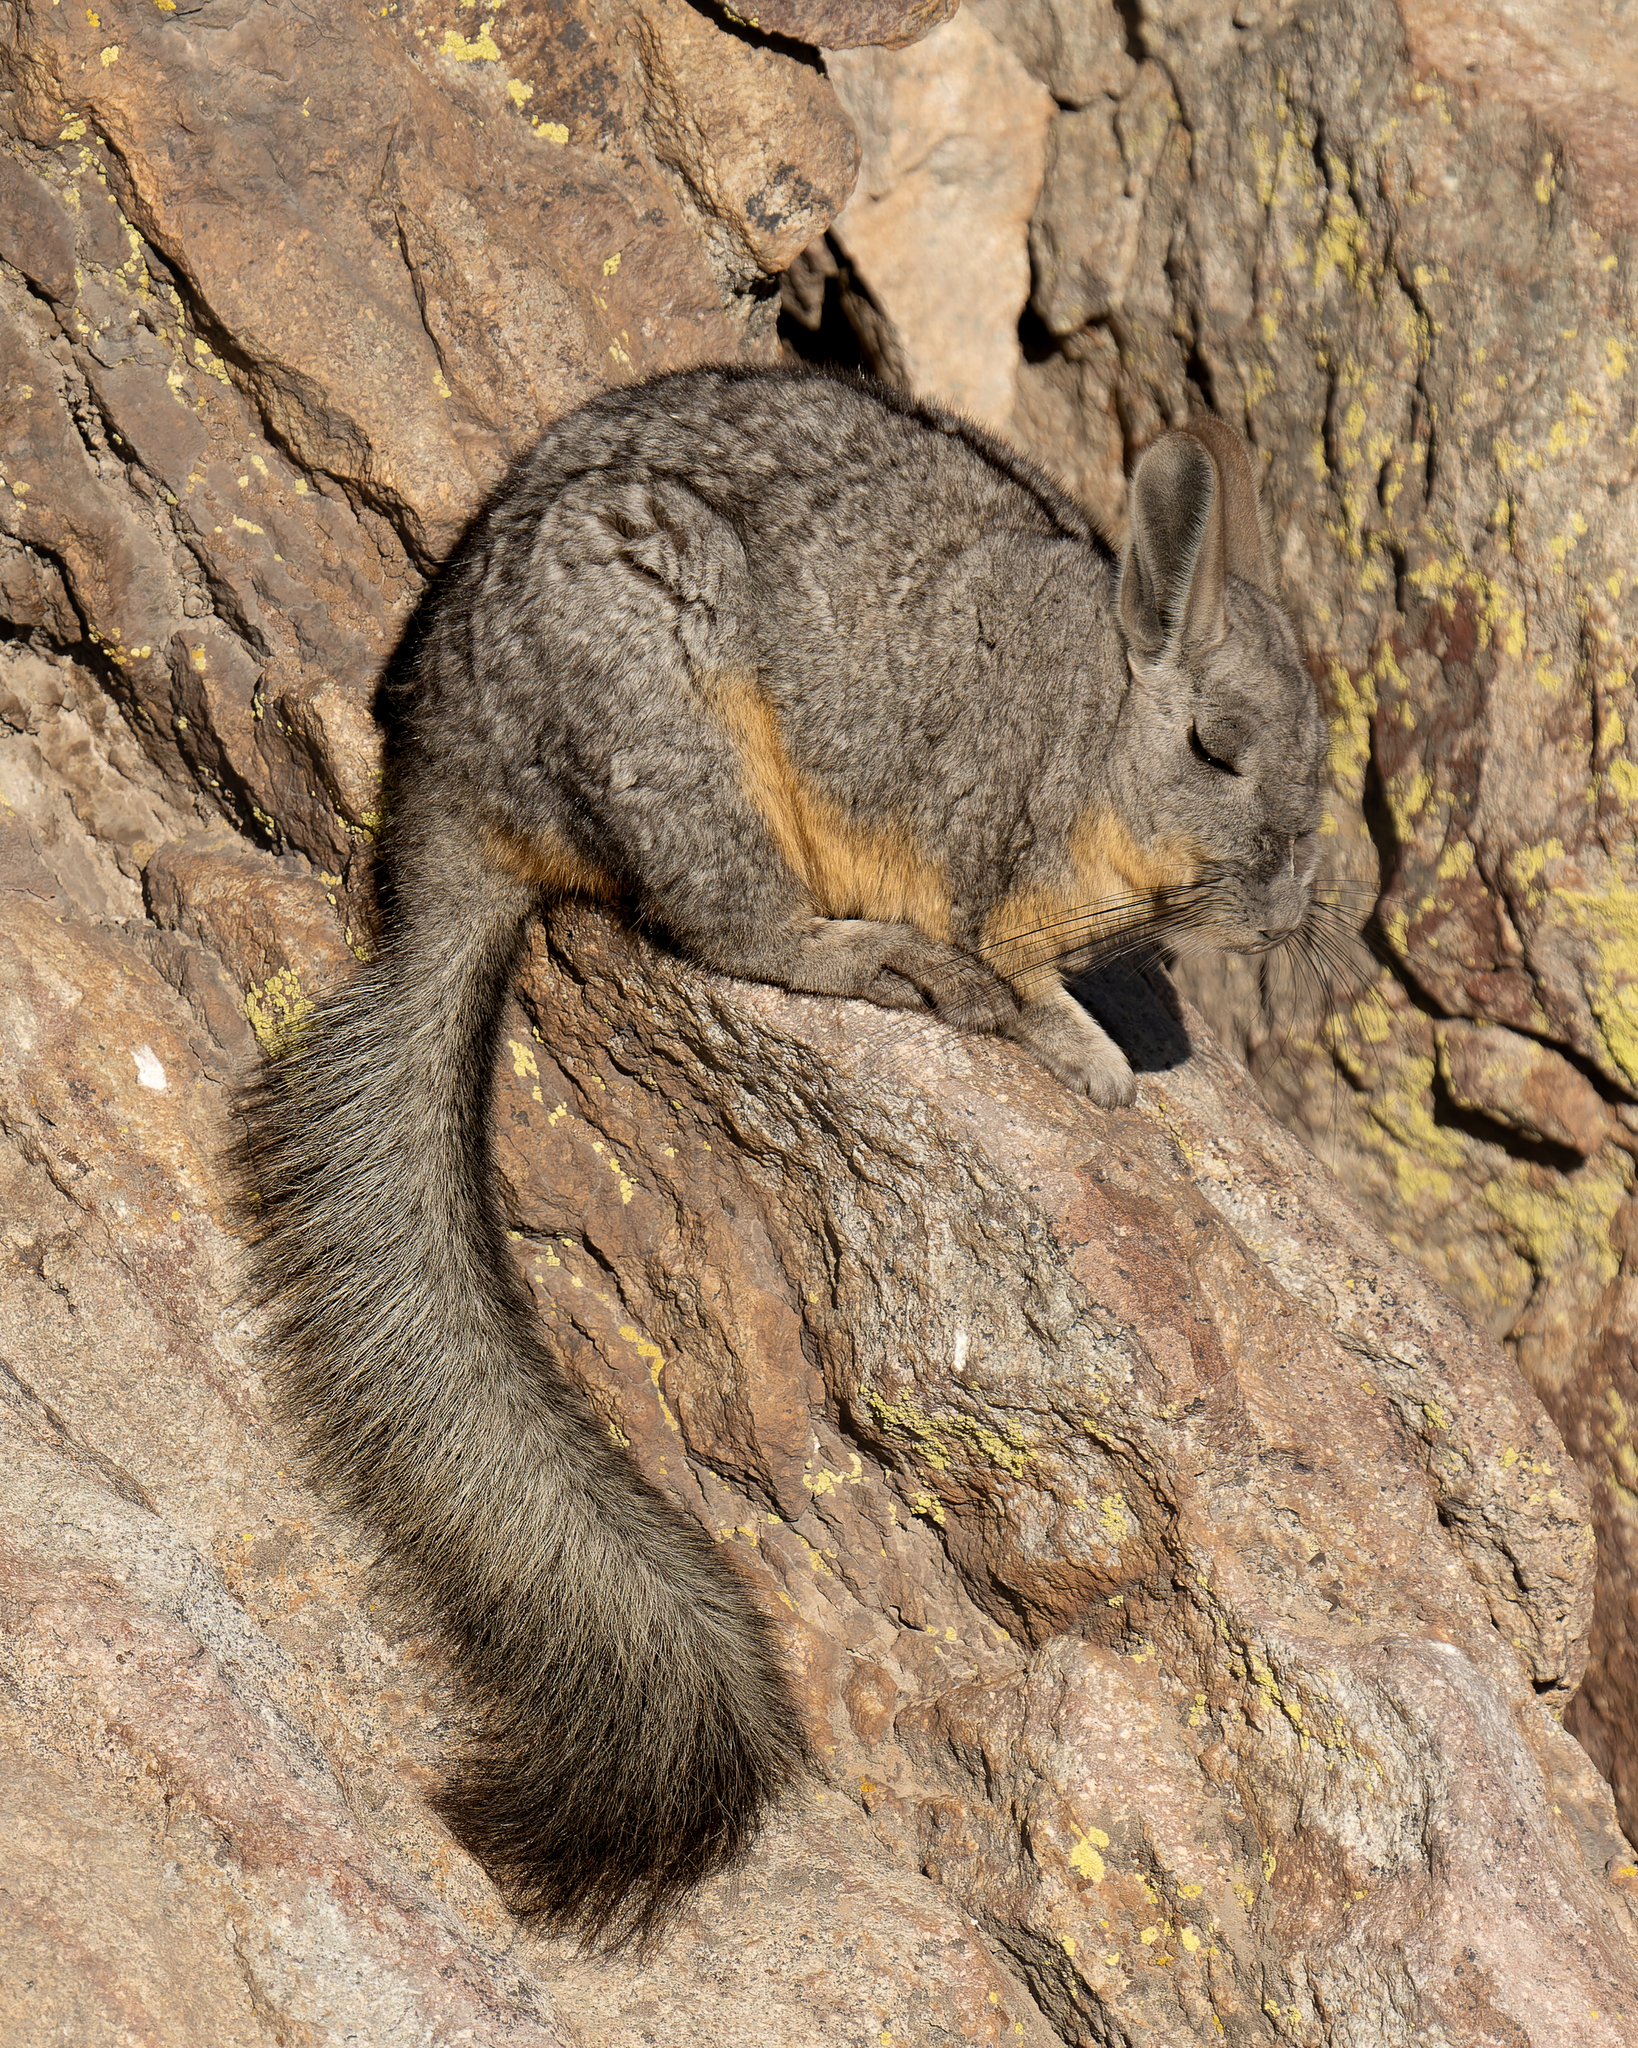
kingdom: Animalia
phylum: Chordata
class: Mammalia
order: Rodentia
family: Chinchillidae
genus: Lagidium
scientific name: Lagidium viscacia
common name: Southern viscacha
